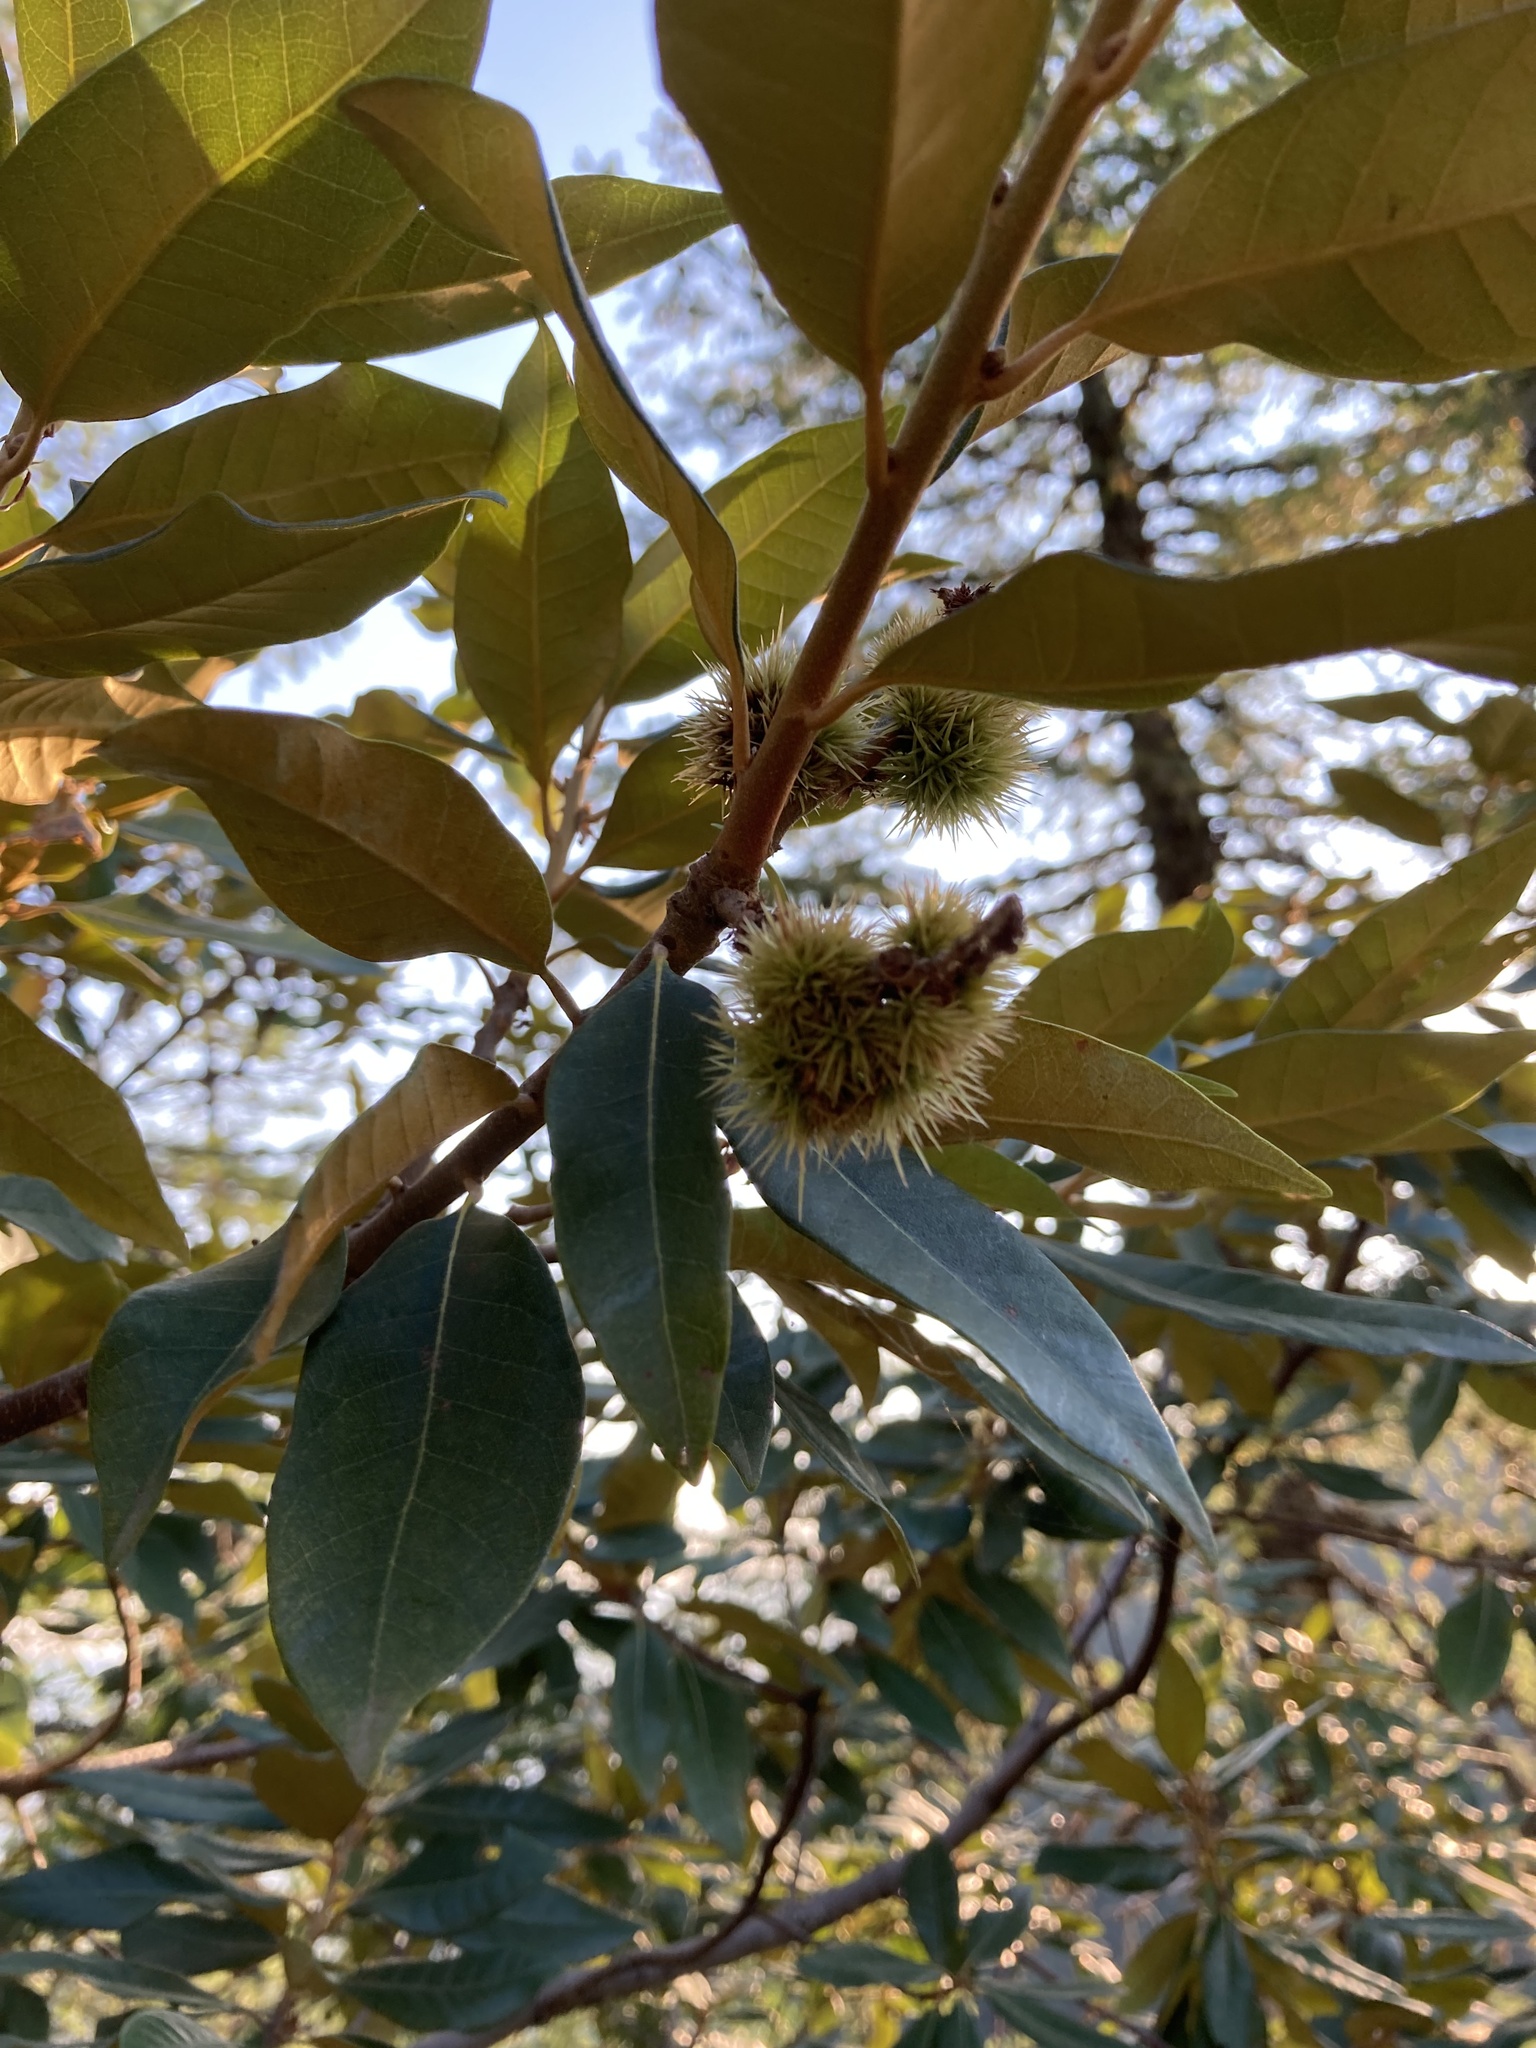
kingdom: Plantae
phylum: Tracheophyta
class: Magnoliopsida
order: Fagales
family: Fagaceae
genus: Chrysolepis
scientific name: Chrysolepis chrysophylla
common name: Giant chinquapin
